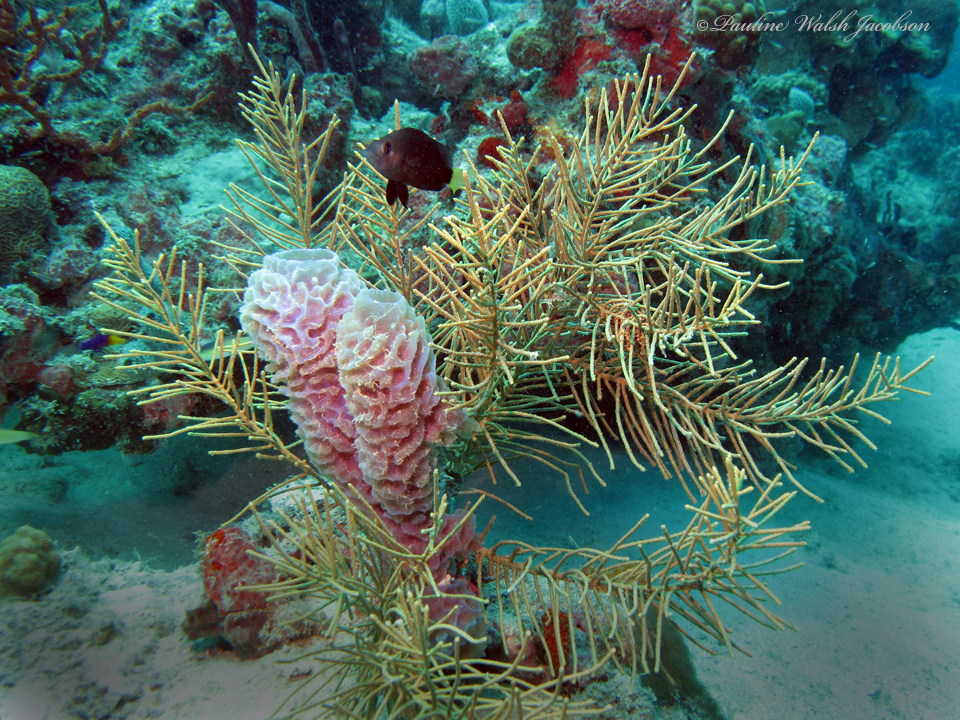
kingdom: Animalia
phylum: Porifera
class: Demospongiae
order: Haplosclerida
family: Callyspongiidae
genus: Callyspongia
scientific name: Callyspongia plicifera
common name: Azure vase sponge
